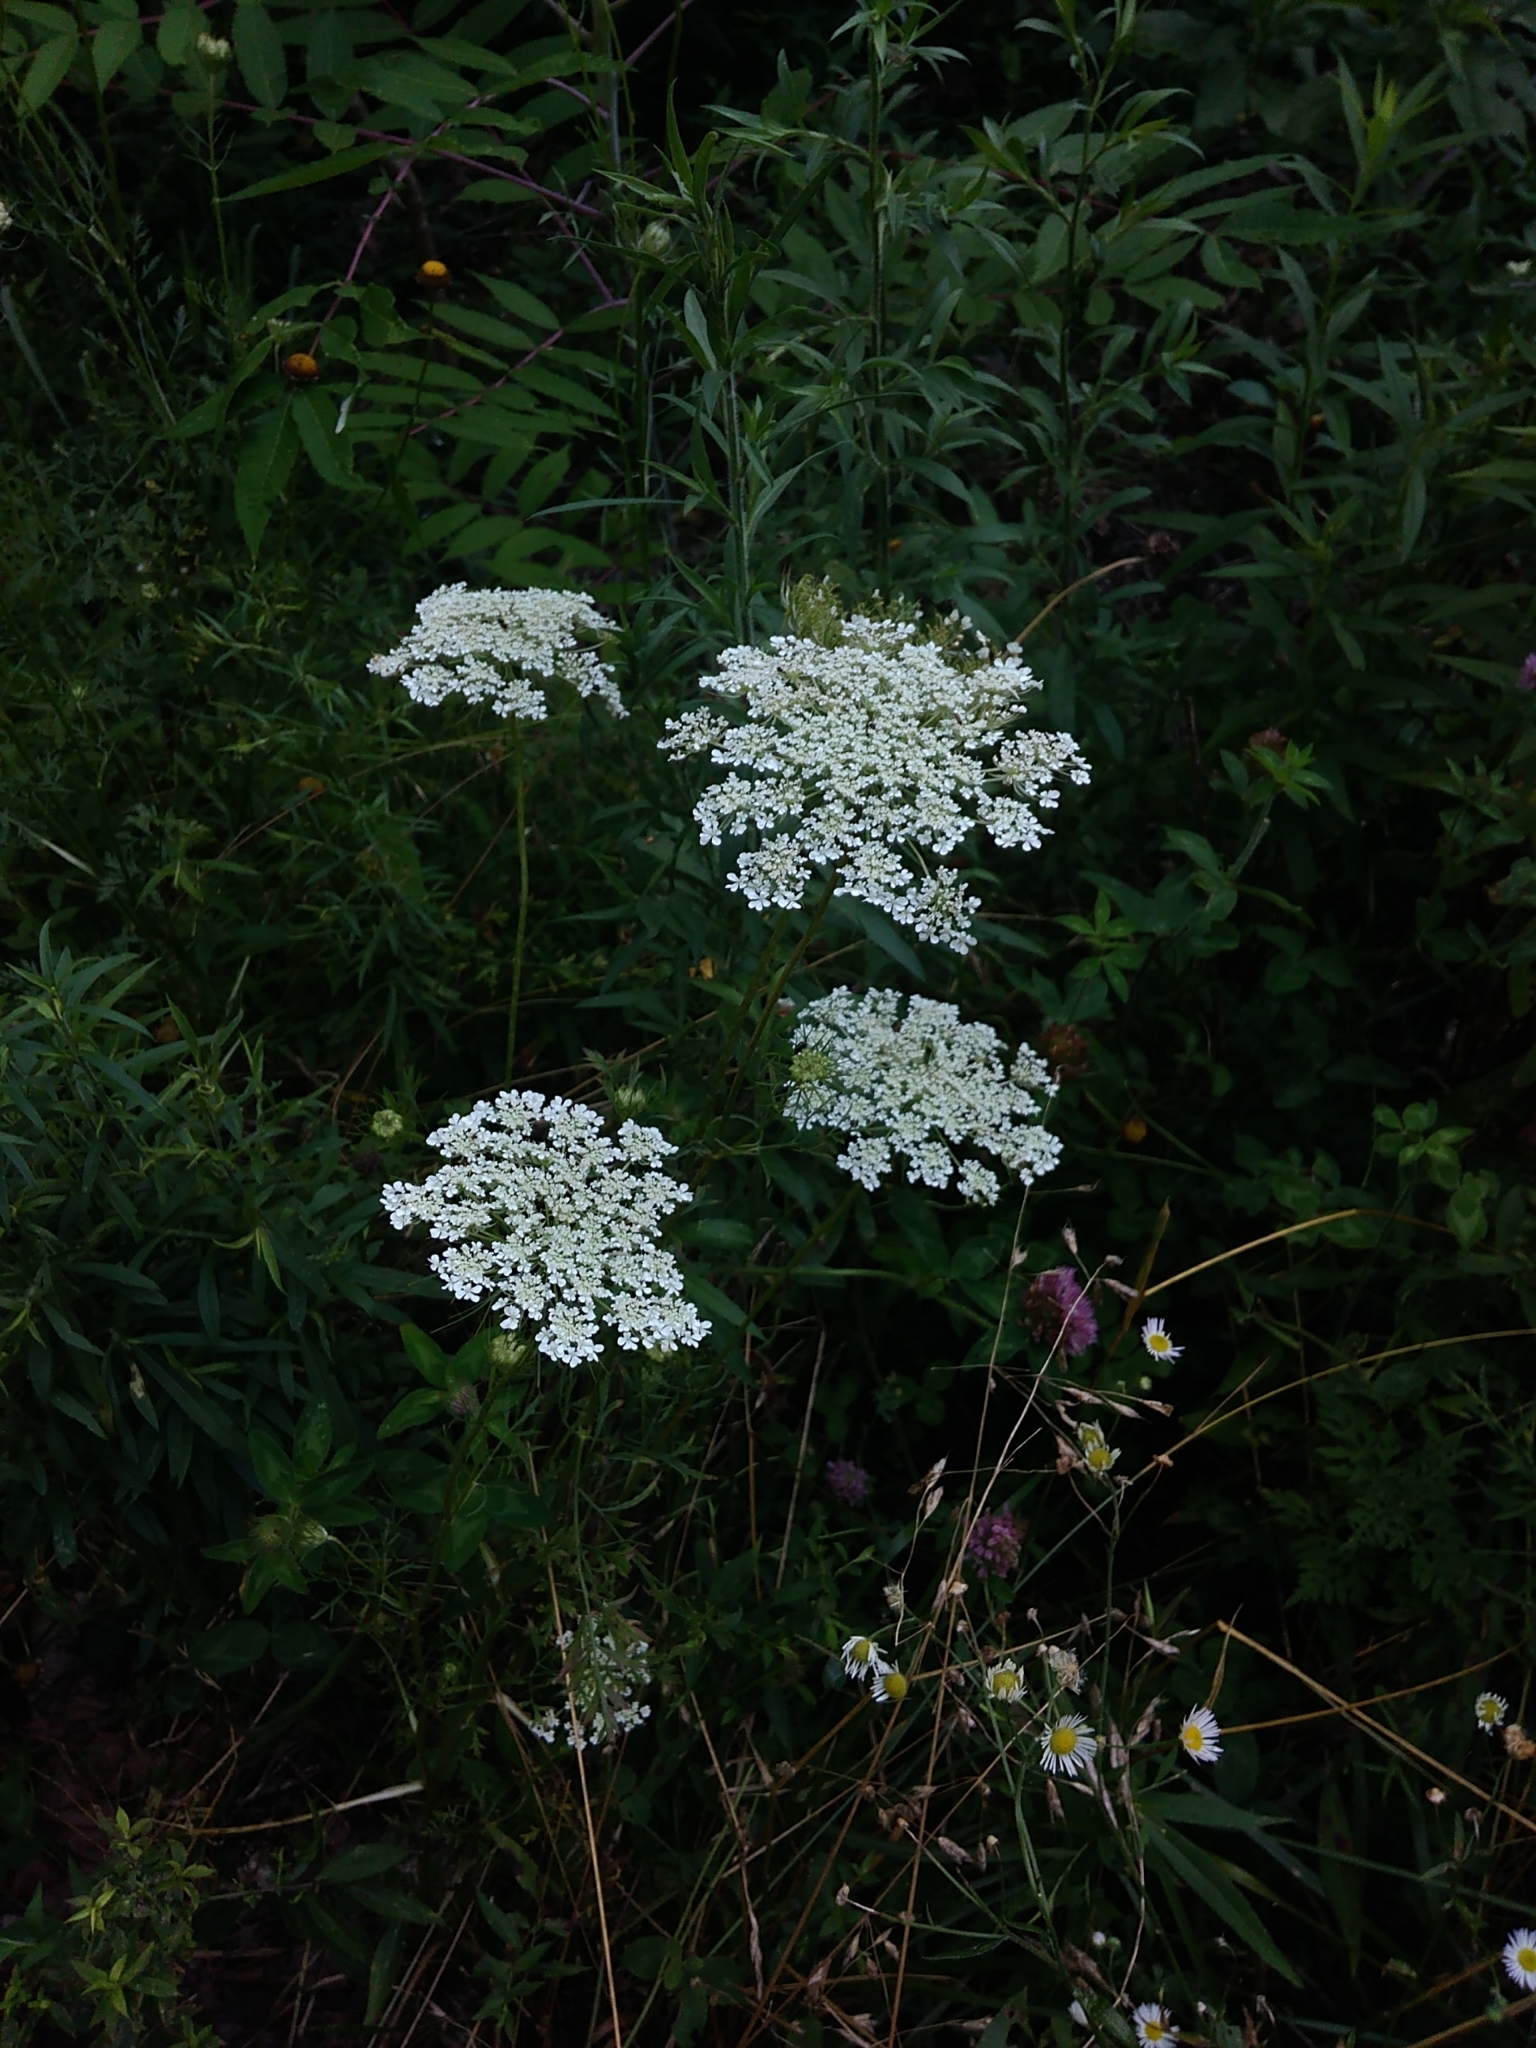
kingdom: Plantae
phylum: Tracheophyta
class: Magnoliopsida
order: Apiales
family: Apiaceae
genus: Daucus
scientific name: Daucus carota
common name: Wild carrot
